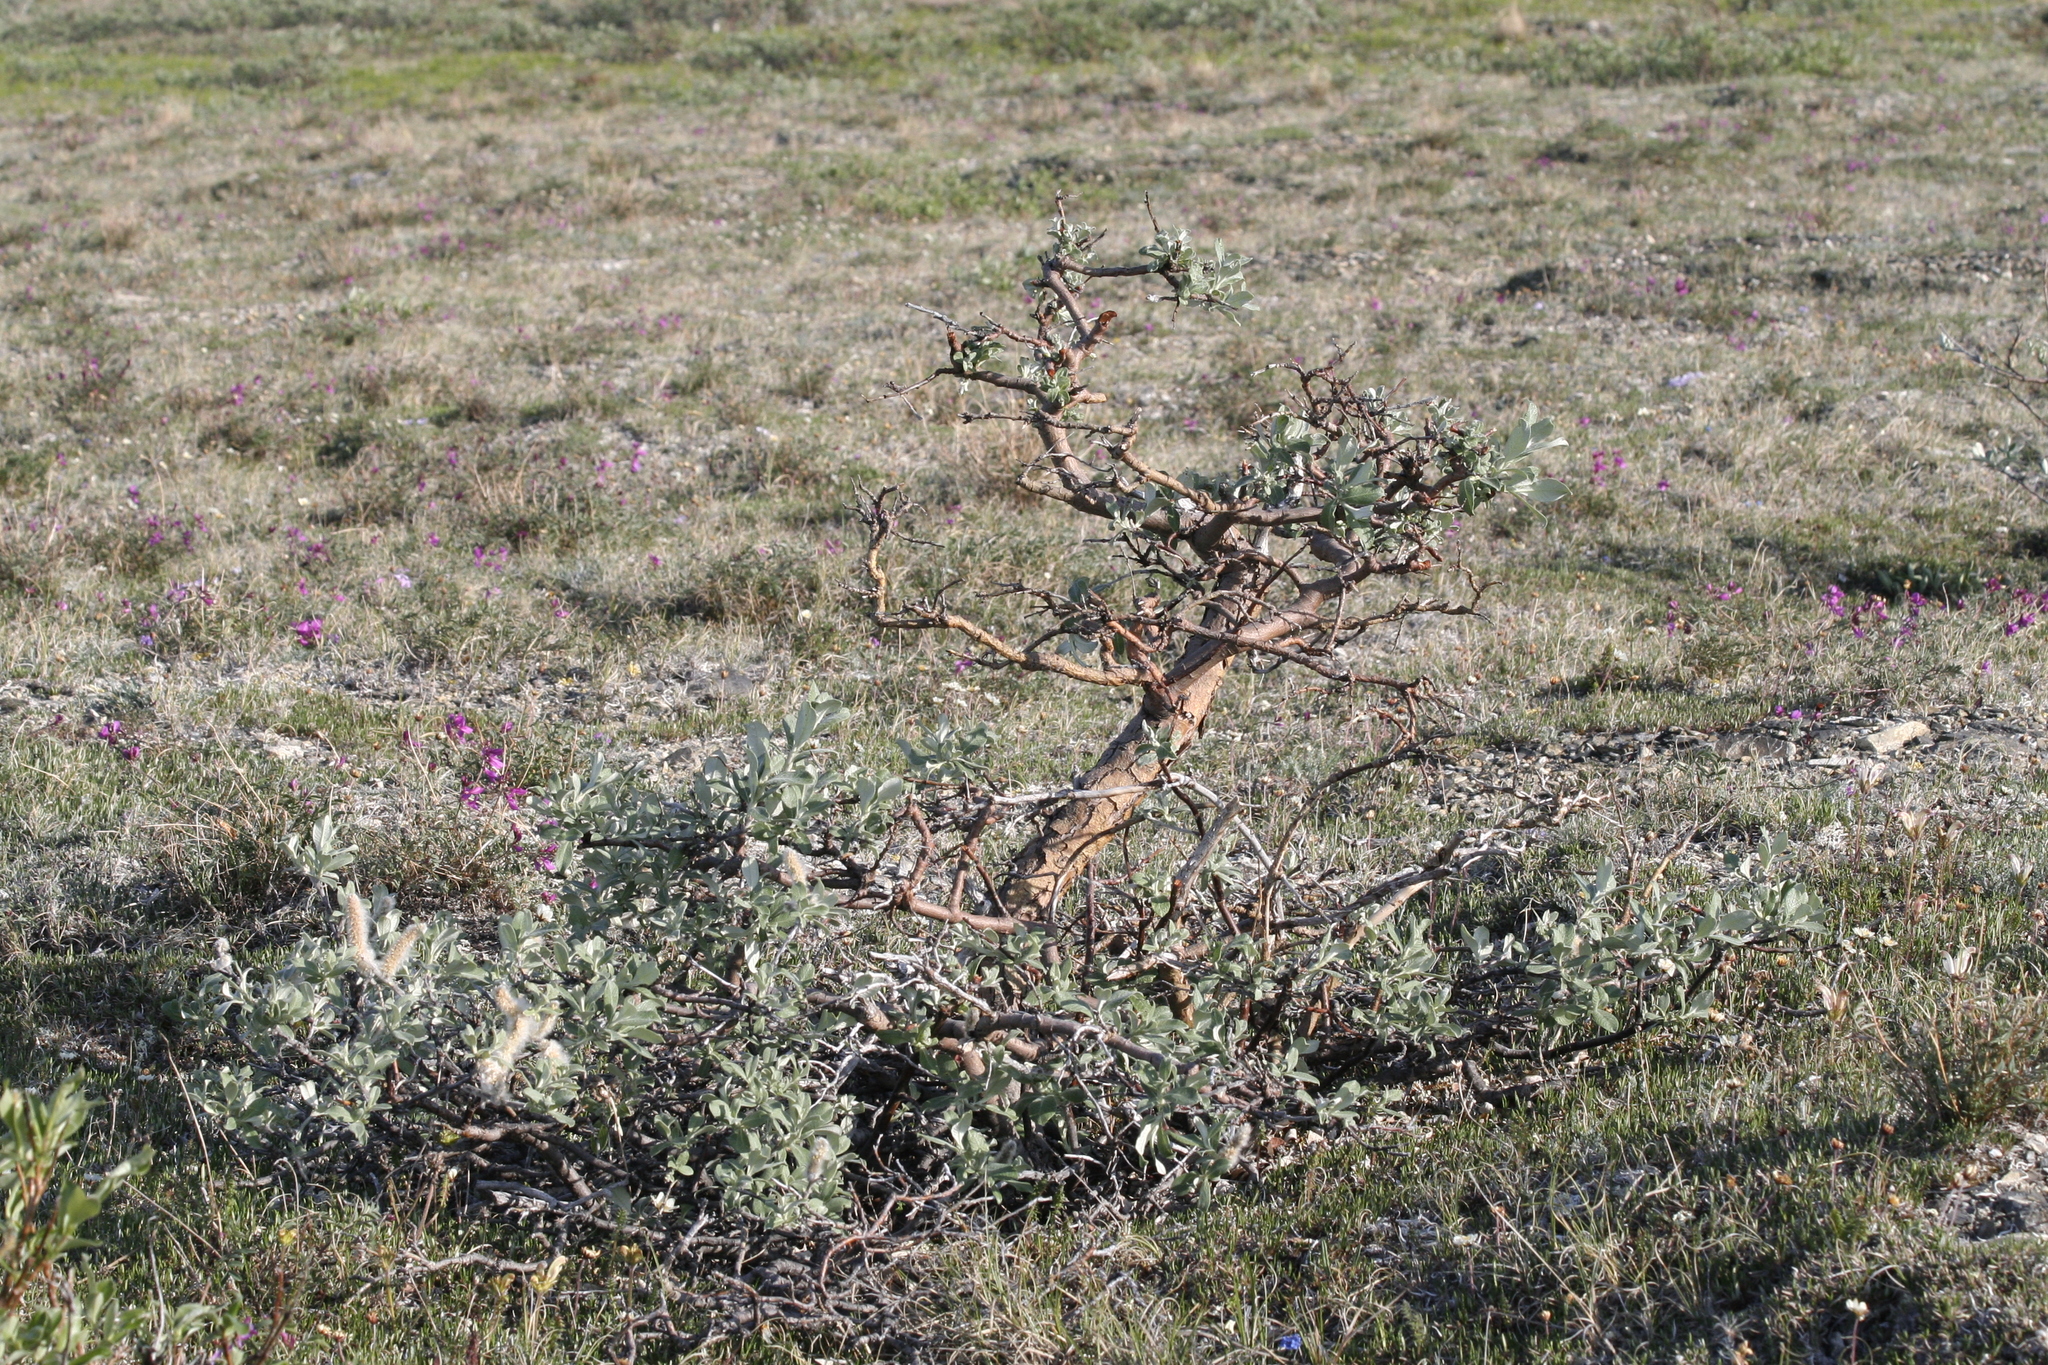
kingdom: Plantae
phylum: Tracheophyta
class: Magnoliopsida
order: Malpighiales
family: Salicaceae
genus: Salix
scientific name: Salix alaxensis
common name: Feltleaf willow
